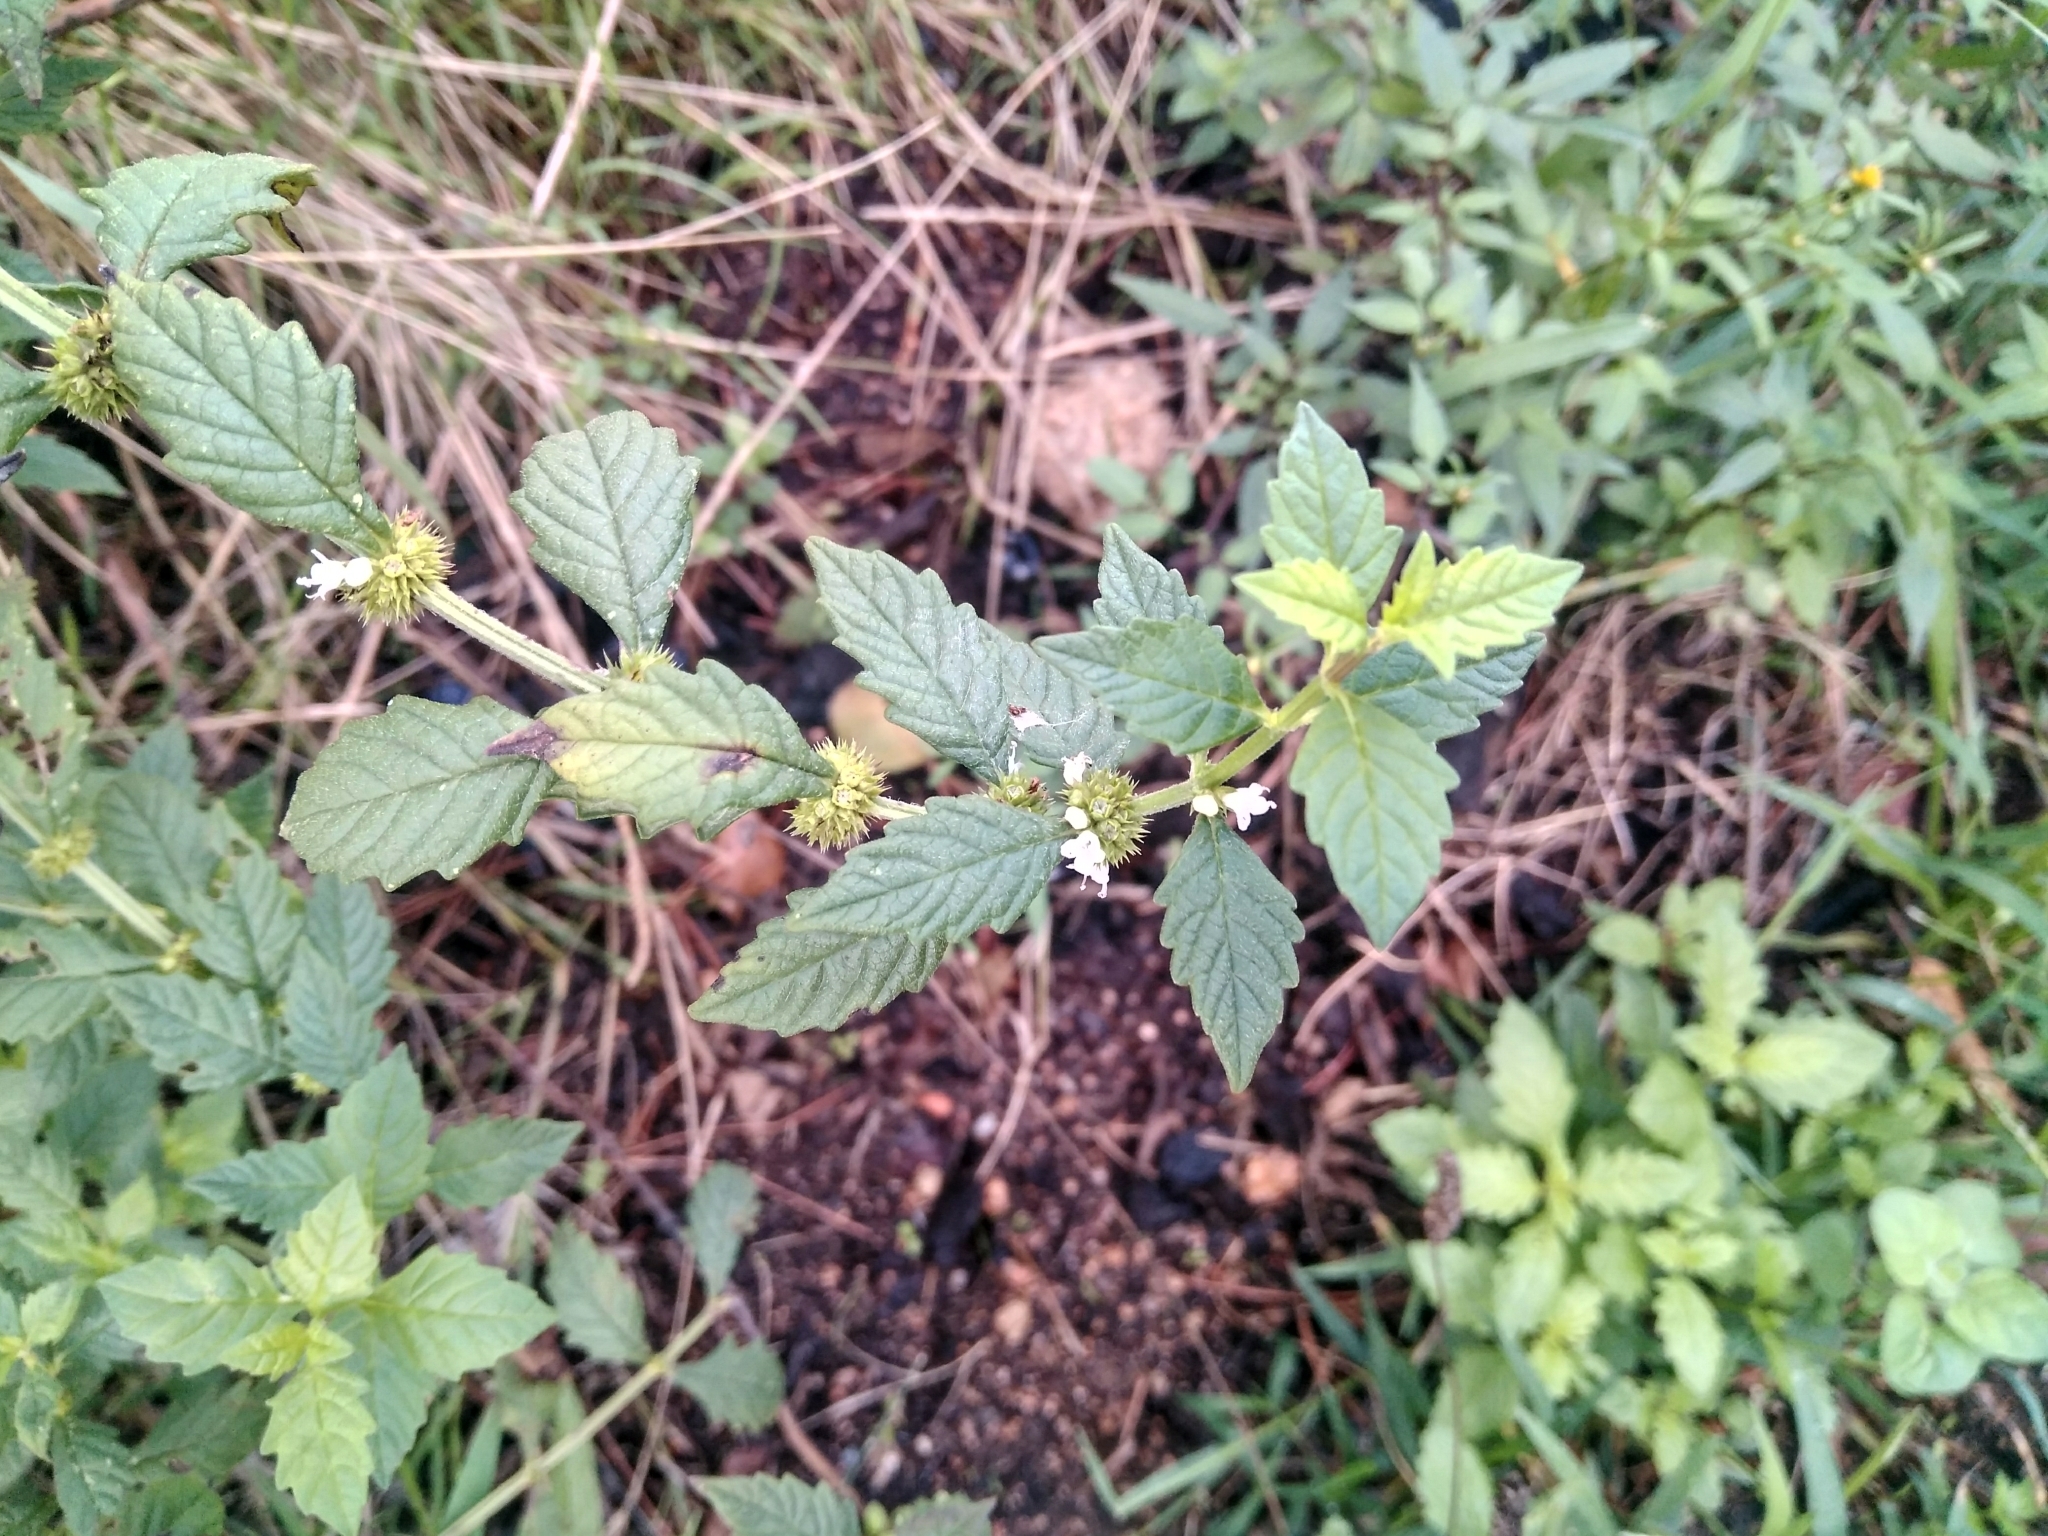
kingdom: Plantae
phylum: Tracheophyta
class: Magnoliopsida
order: Lamiales
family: Lamiaceae
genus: Lycopus
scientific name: Lycopus europaeus
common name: European bugleweed
